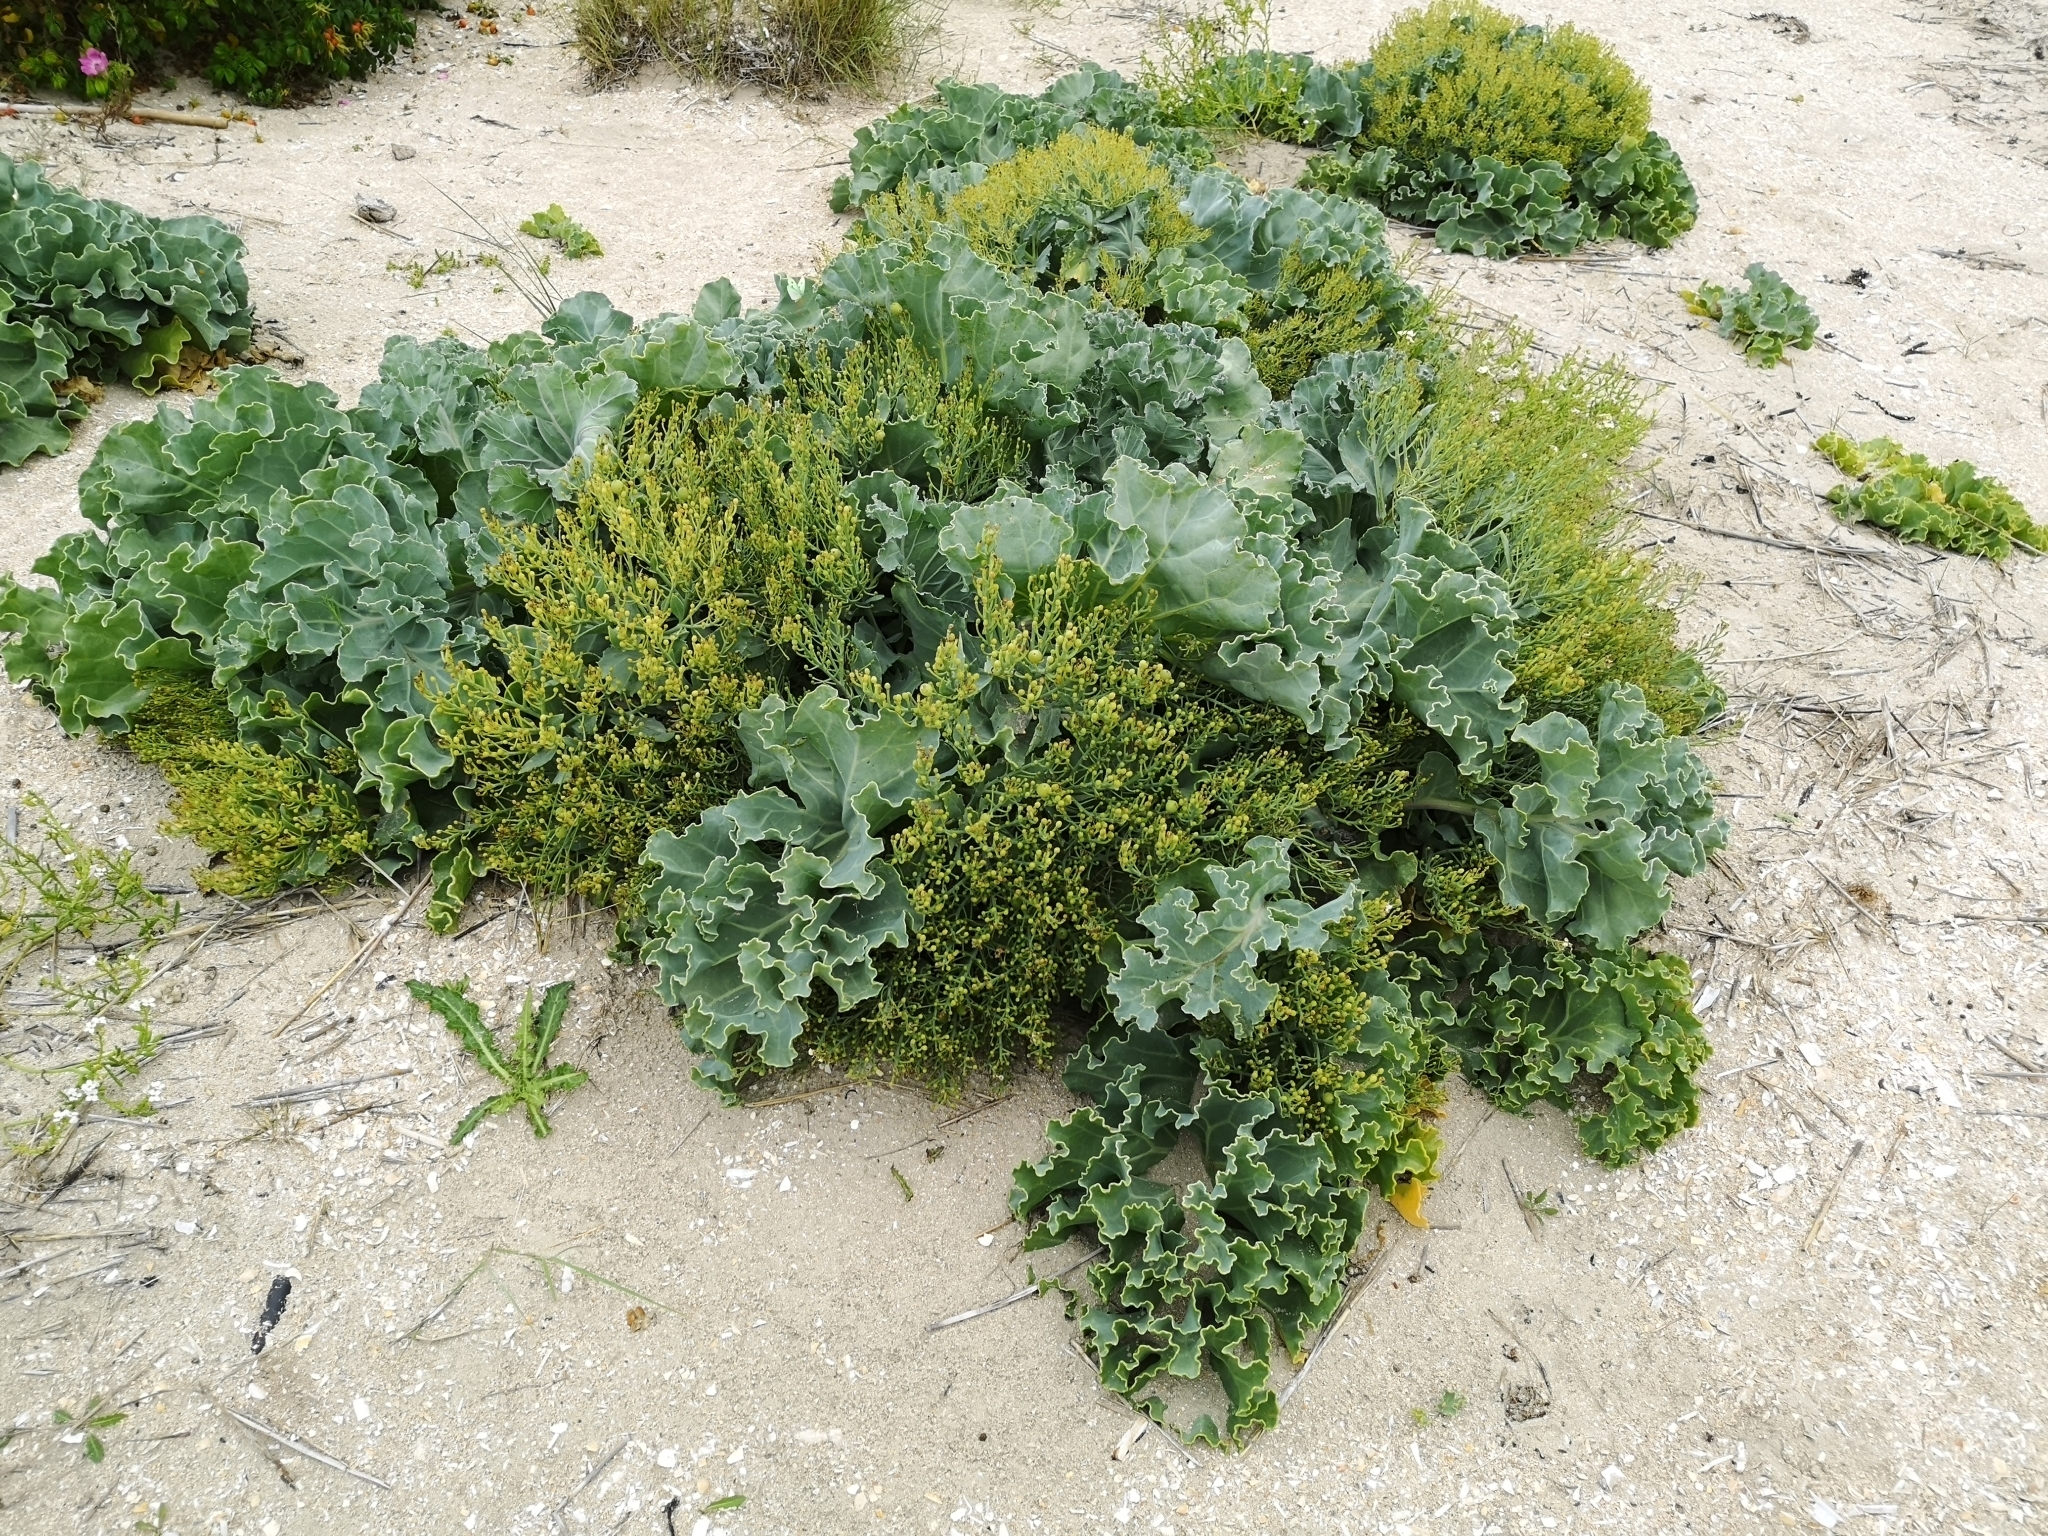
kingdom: Plantae
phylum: Tracheophyta
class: Magnoliopsida
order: Brassicales
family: Brassicaceae
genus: Crambe
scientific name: Crambe maritima
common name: Sea-kale
